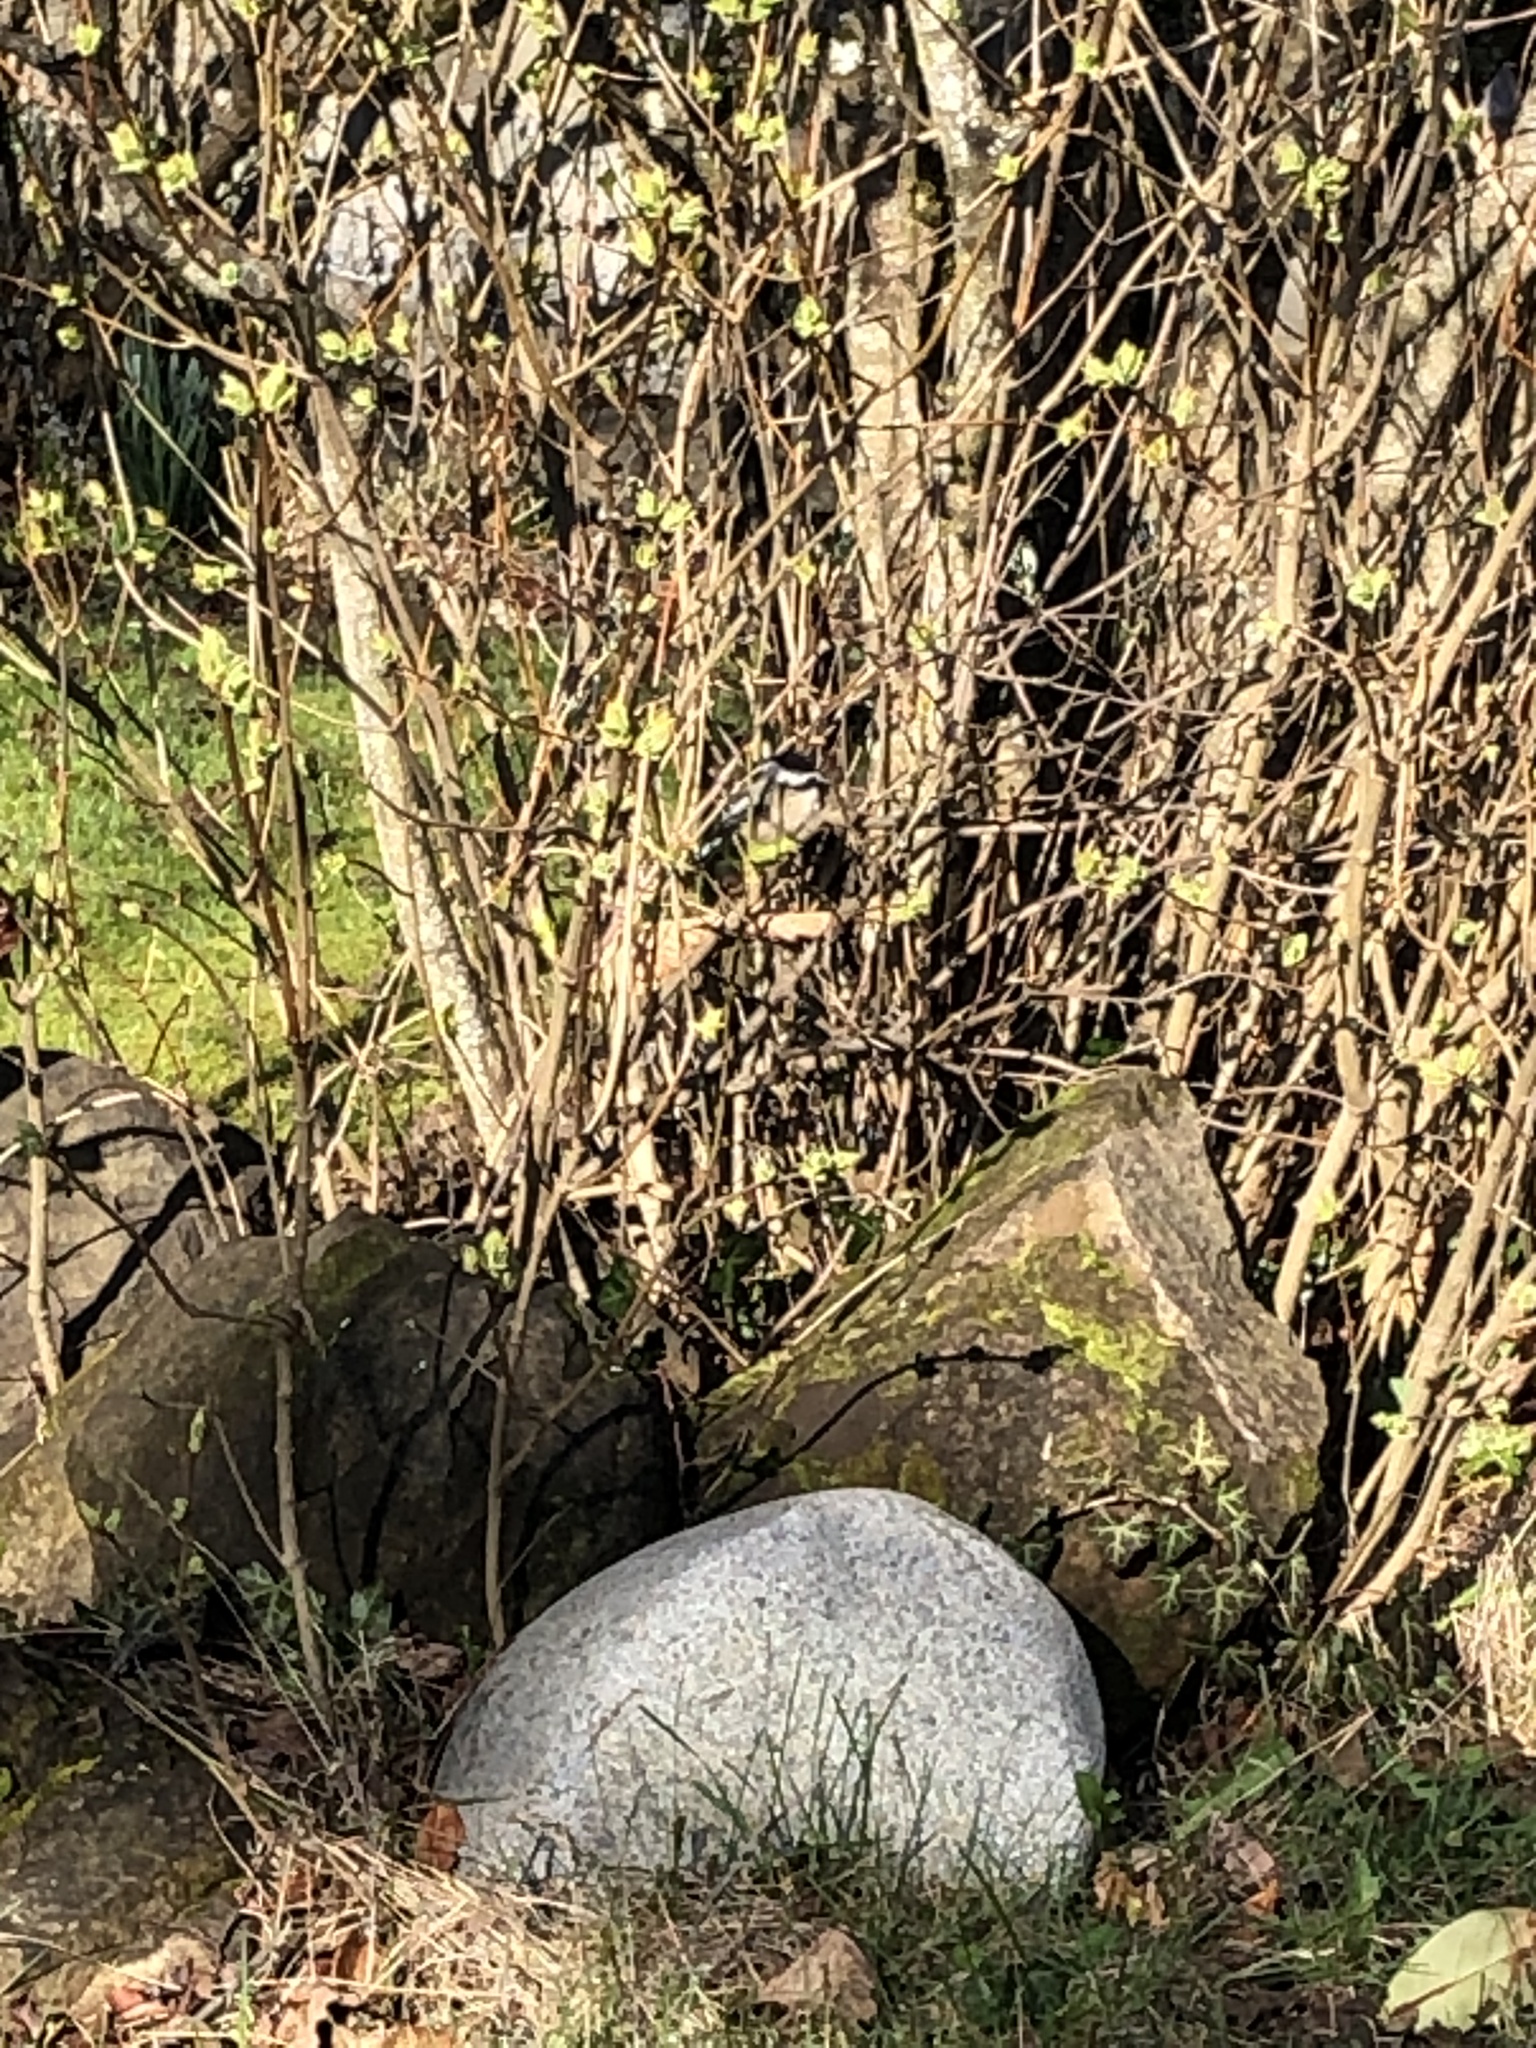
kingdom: Animalia
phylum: Chordata
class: Aves
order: Passeriformes
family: Paridae
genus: Poecile
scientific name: Poecile atricapillus
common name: Black-capped chickadee
